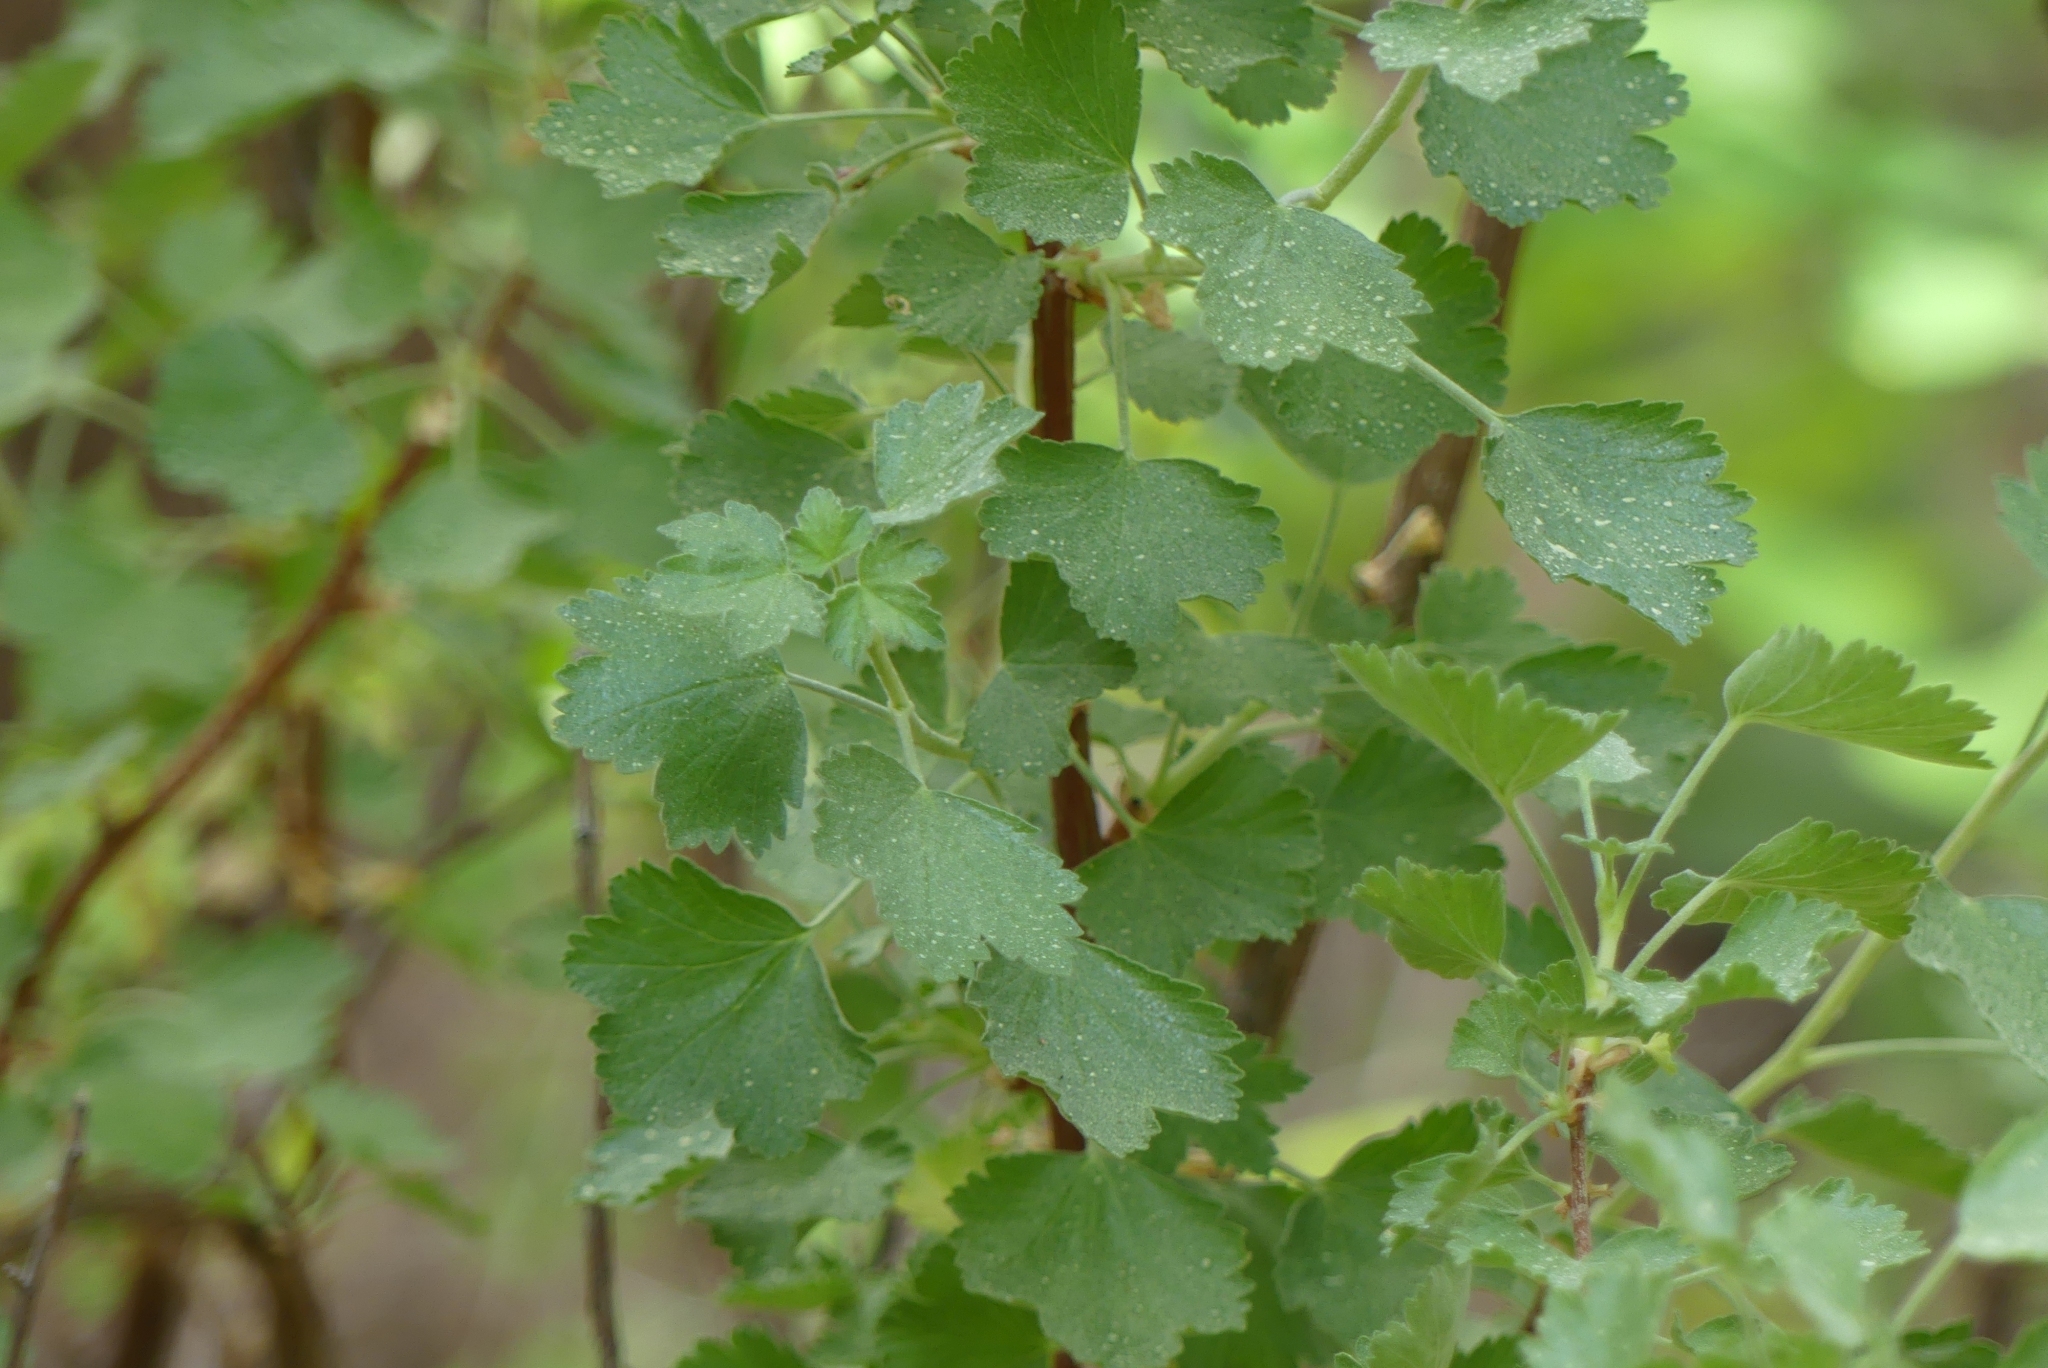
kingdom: Plantae
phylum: Tracheophyta
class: Magnoliopsida
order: Saxifragales
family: Grossulariaceae
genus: Ribes
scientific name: Ribes cereum
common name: Wax currant
